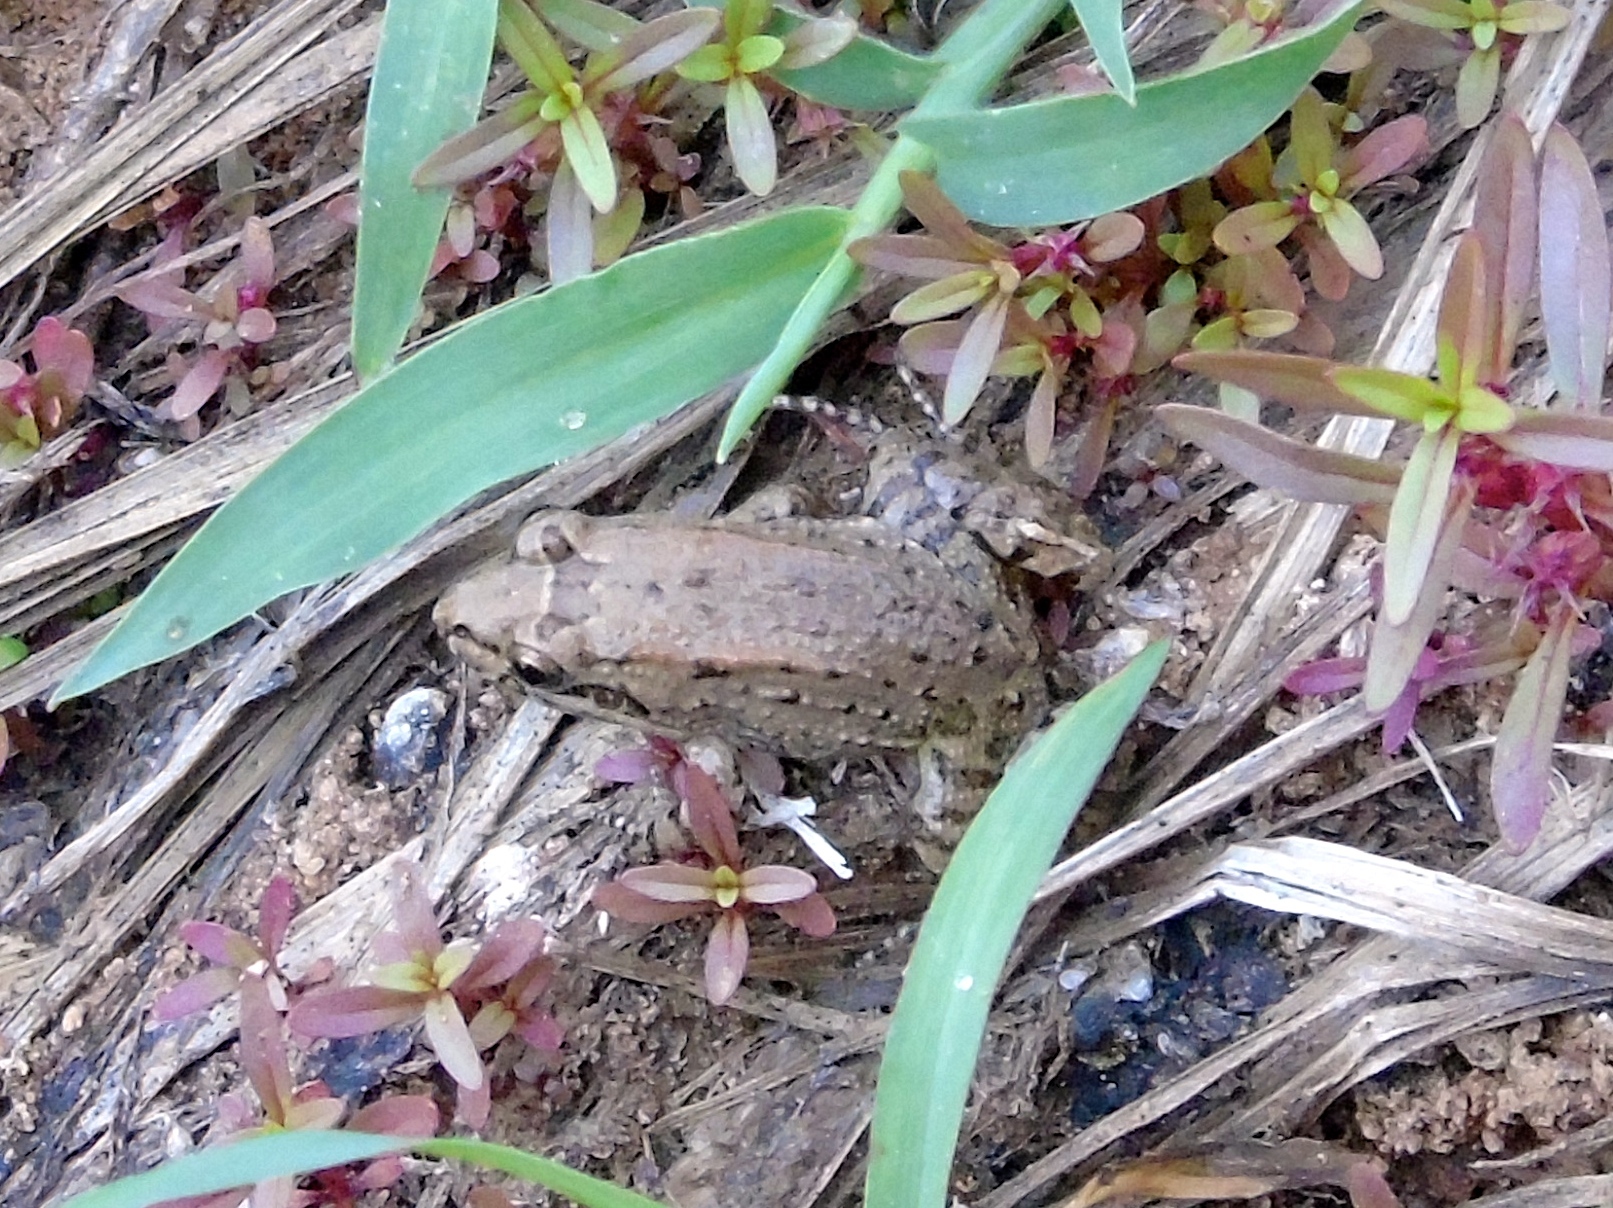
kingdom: Animalia
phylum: Chordata
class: Amphibia
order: Anura
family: Leptodactylidae
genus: Leptodactylus
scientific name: Leptodactylus melanonotus
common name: Fringe-toed foamfrog
